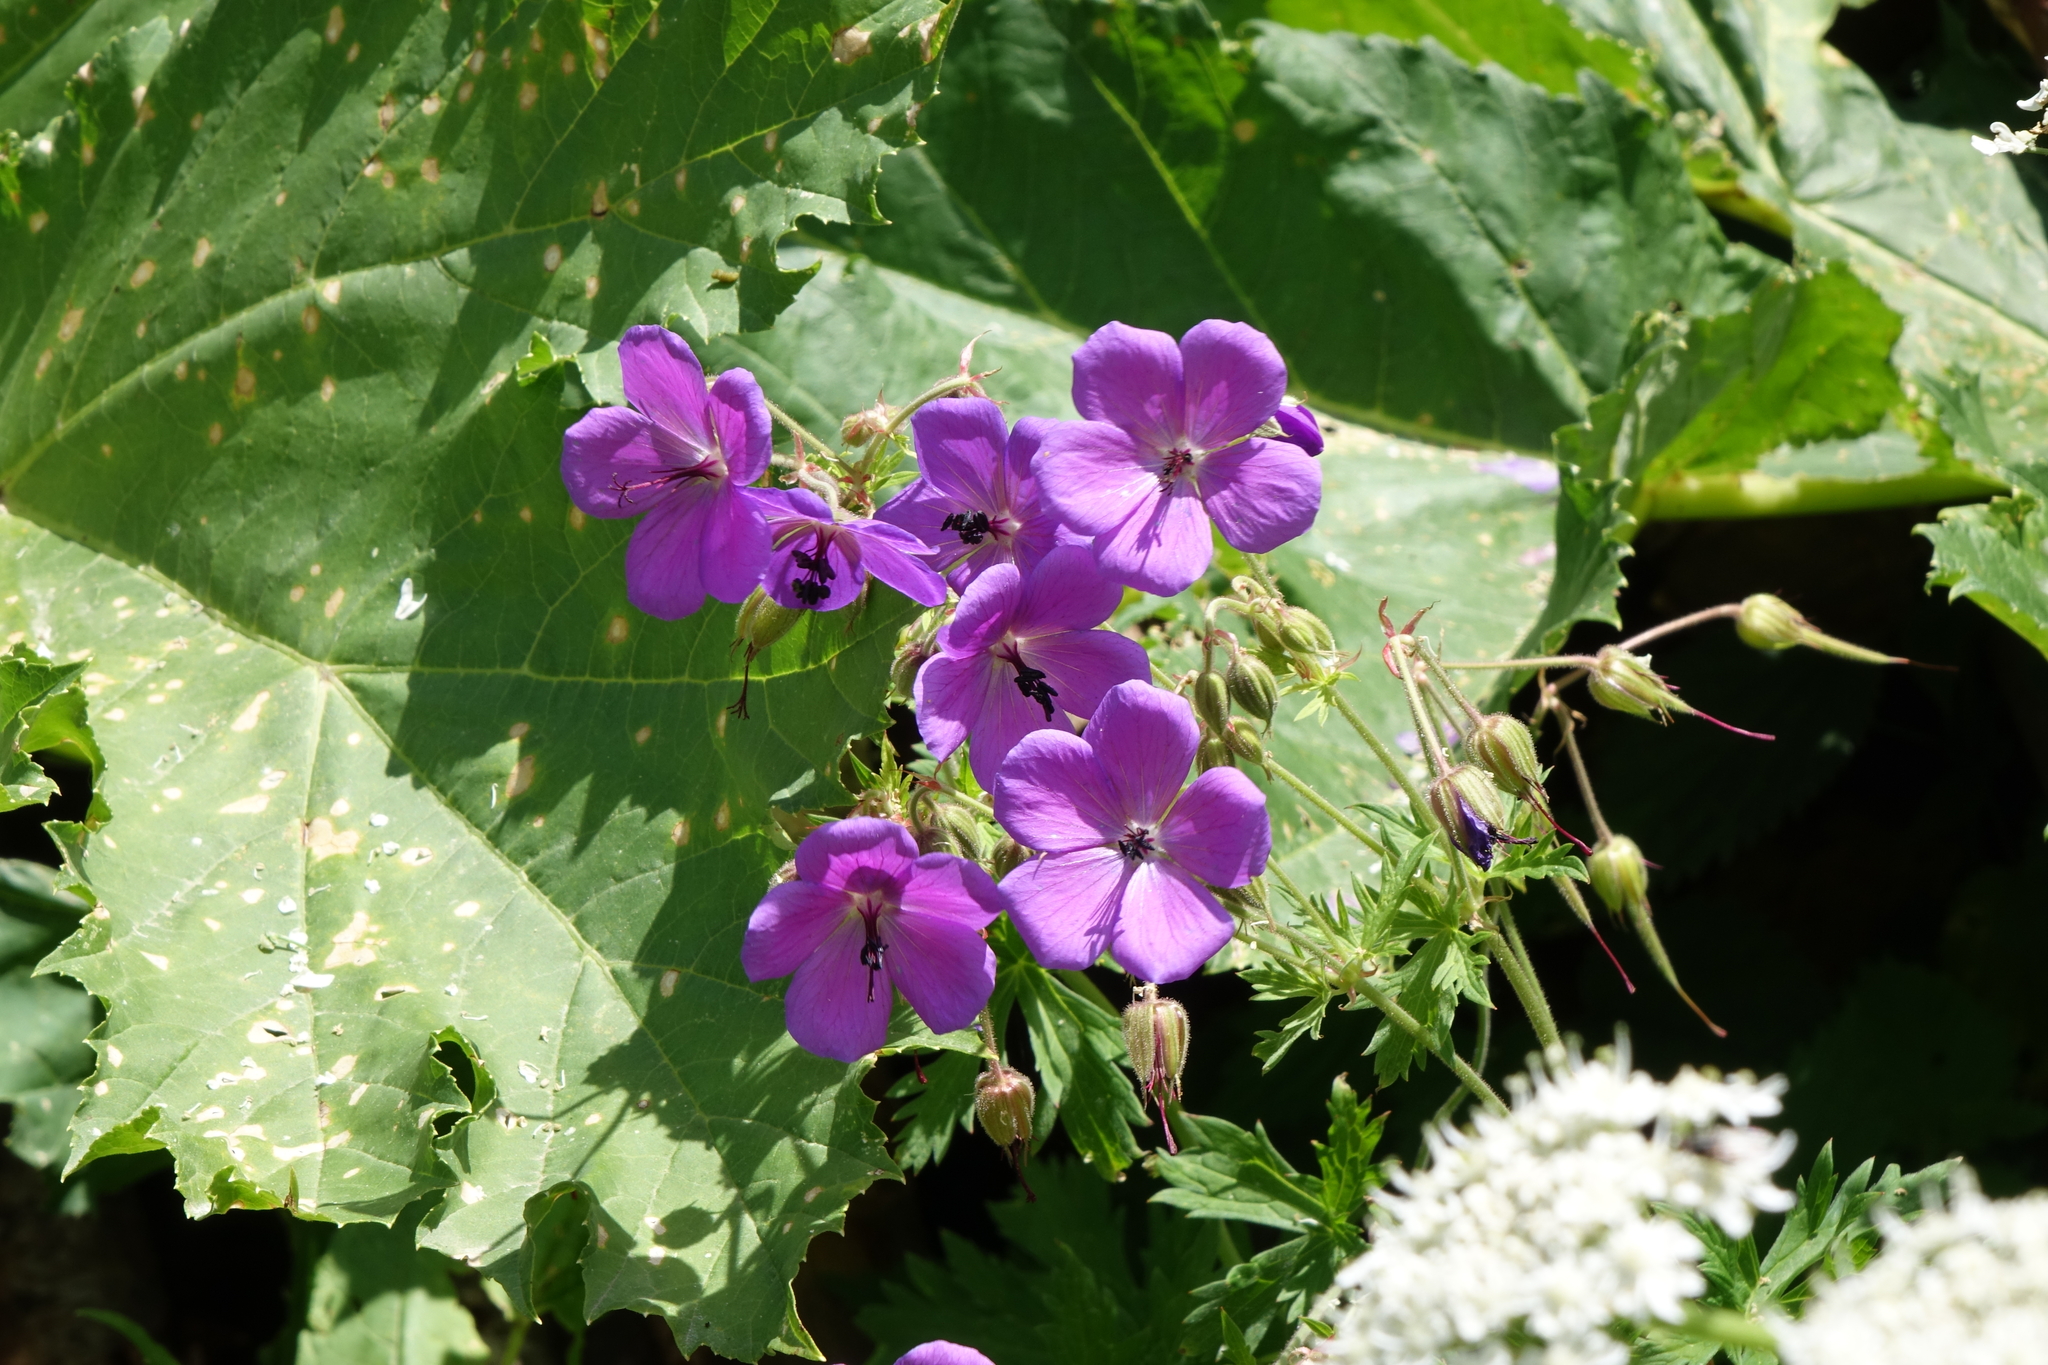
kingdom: Plantae
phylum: Tracheophyta
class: Magnoliopsida
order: Geraniales
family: Geraniaceae
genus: Geranium
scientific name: Geranium ruprechtii
